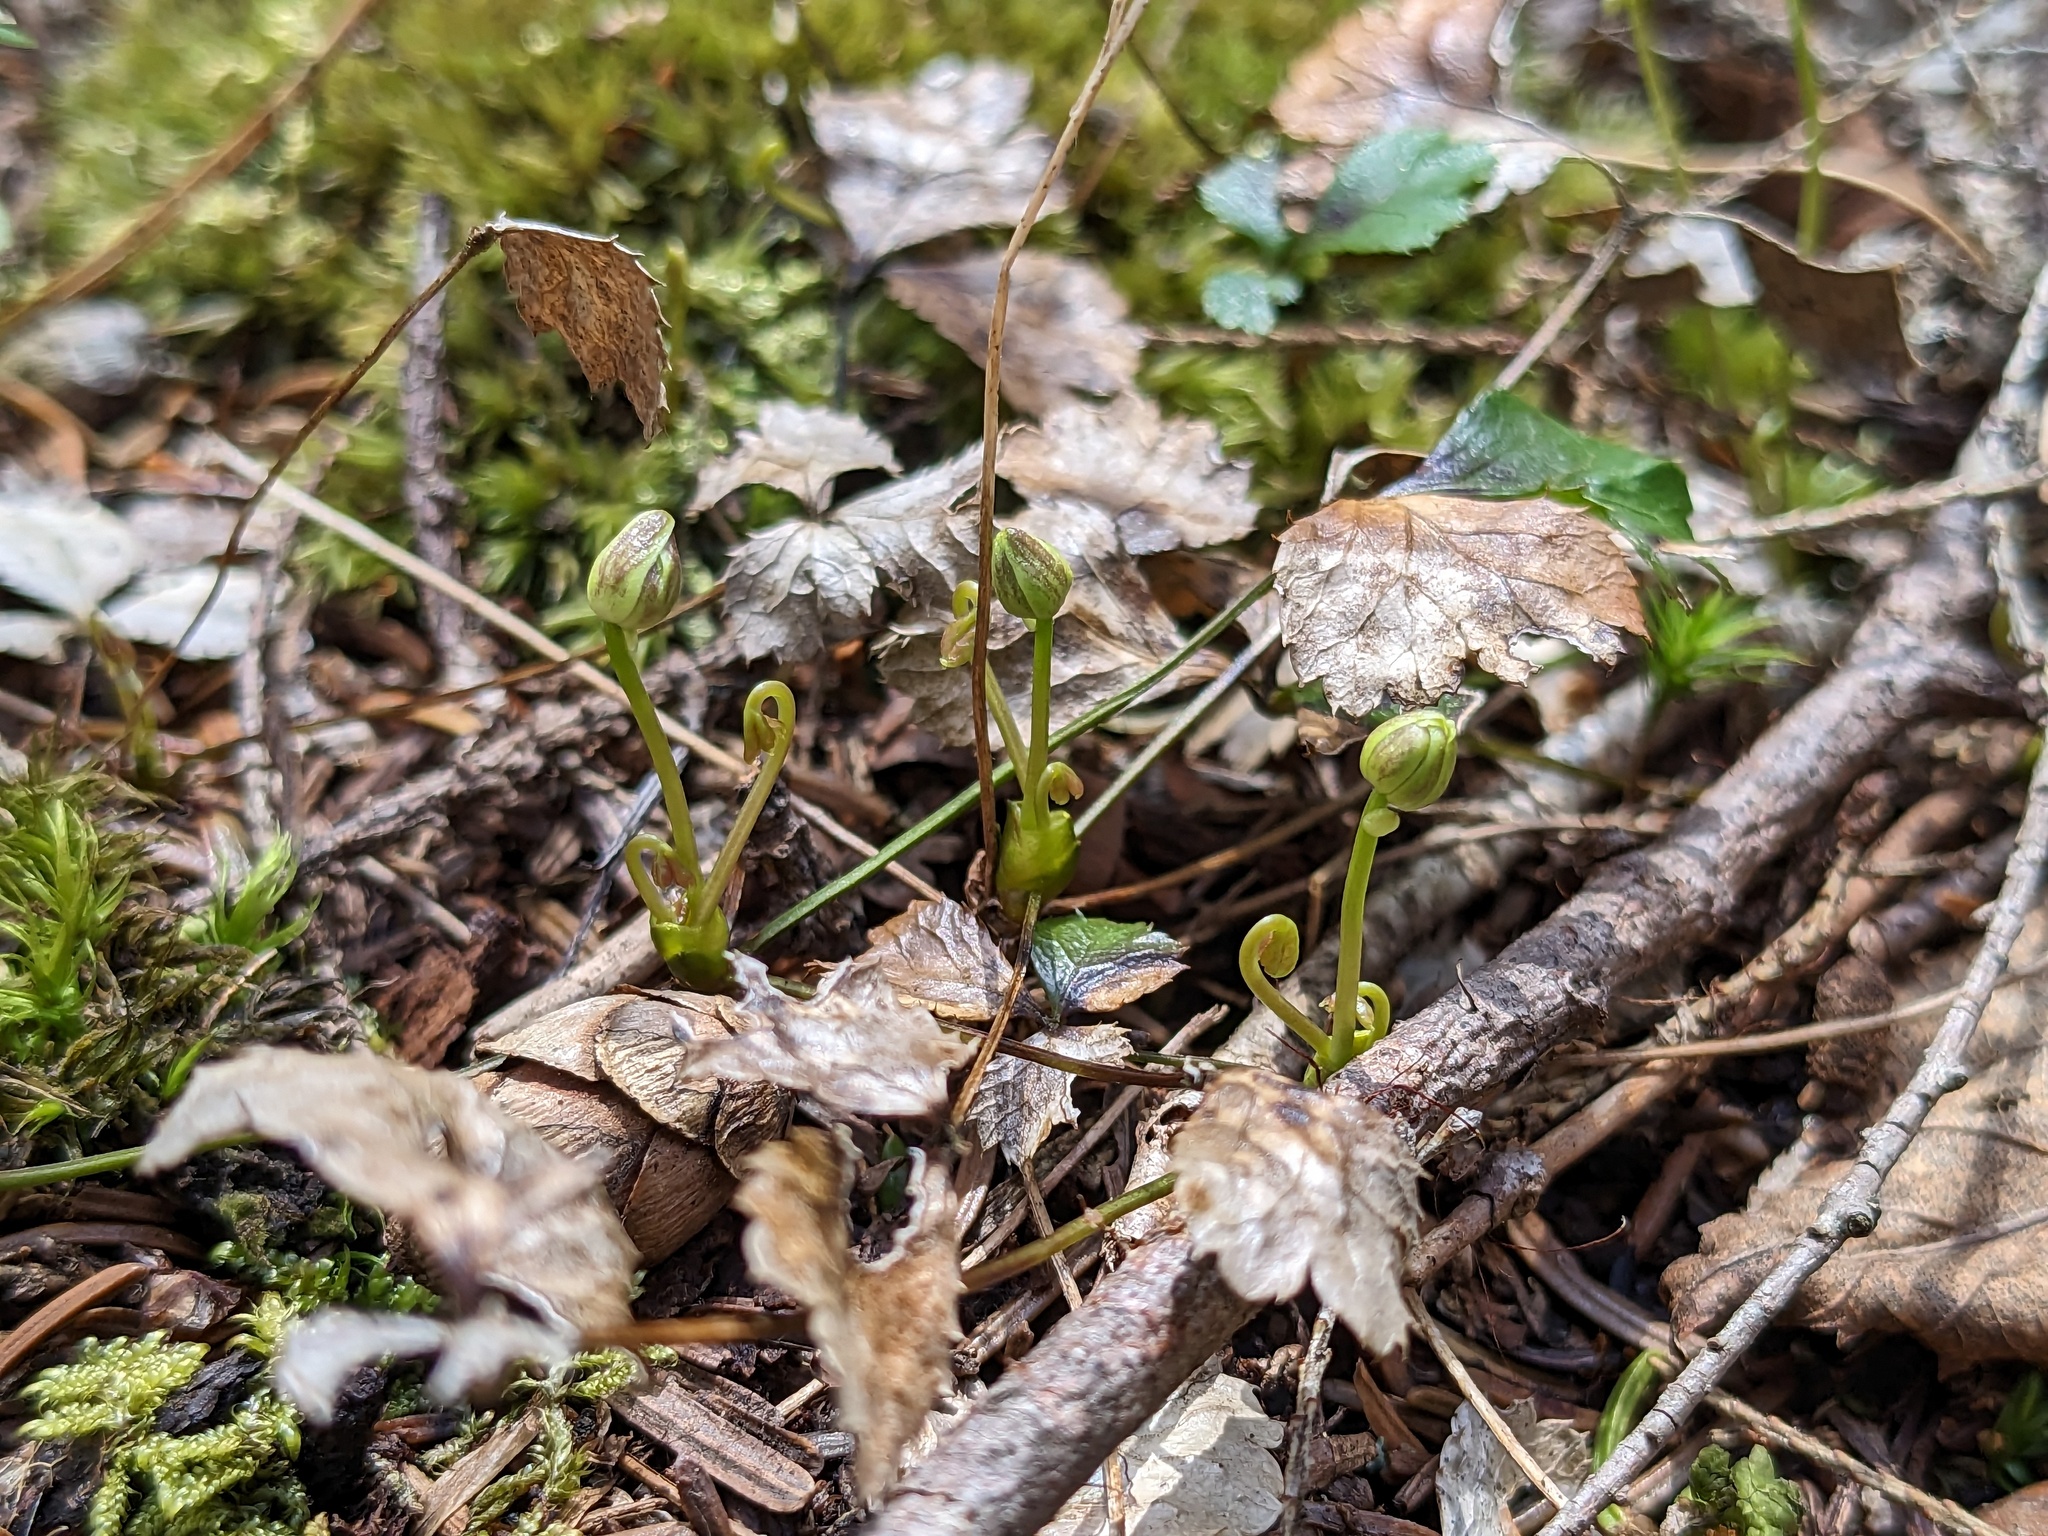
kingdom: Plantae
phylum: Tracheophyta
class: Magnoliopsida
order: Ranunculales
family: Ranunculaceae
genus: Coptis
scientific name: Coptis trifolia
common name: Canker-root
